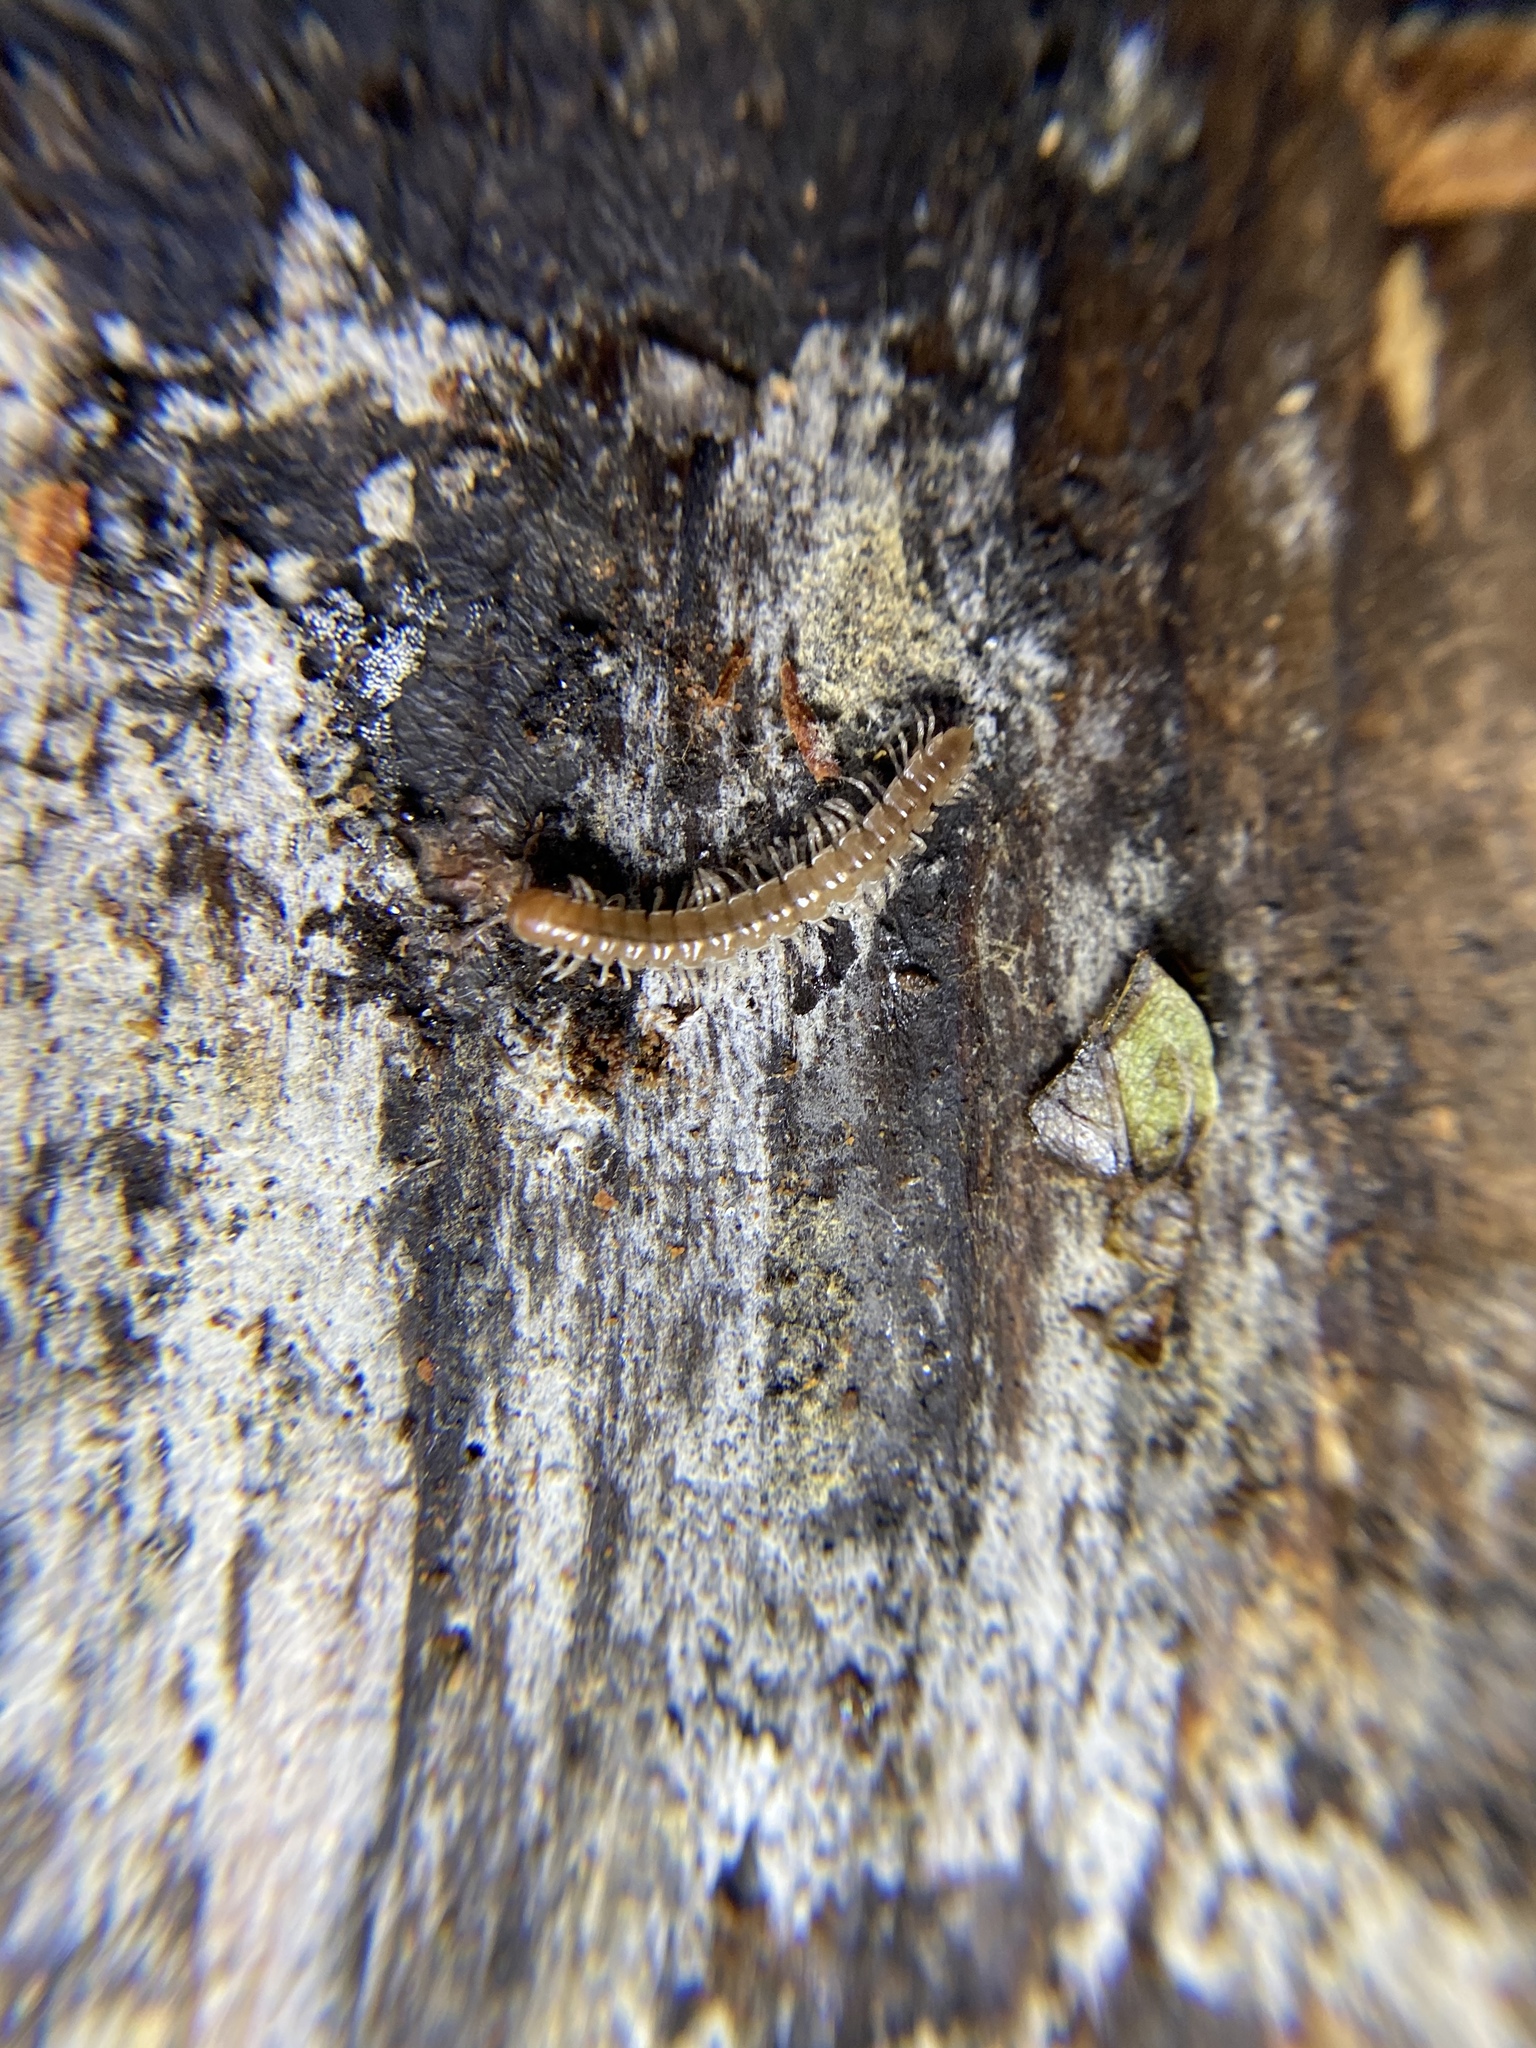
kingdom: Animalia
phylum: Arthropoda
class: Diplopoda
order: Polydesmida
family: Paradoxosomatidae
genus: Oxidus
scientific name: Oxidus gracilis
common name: Greenhouse millipede
